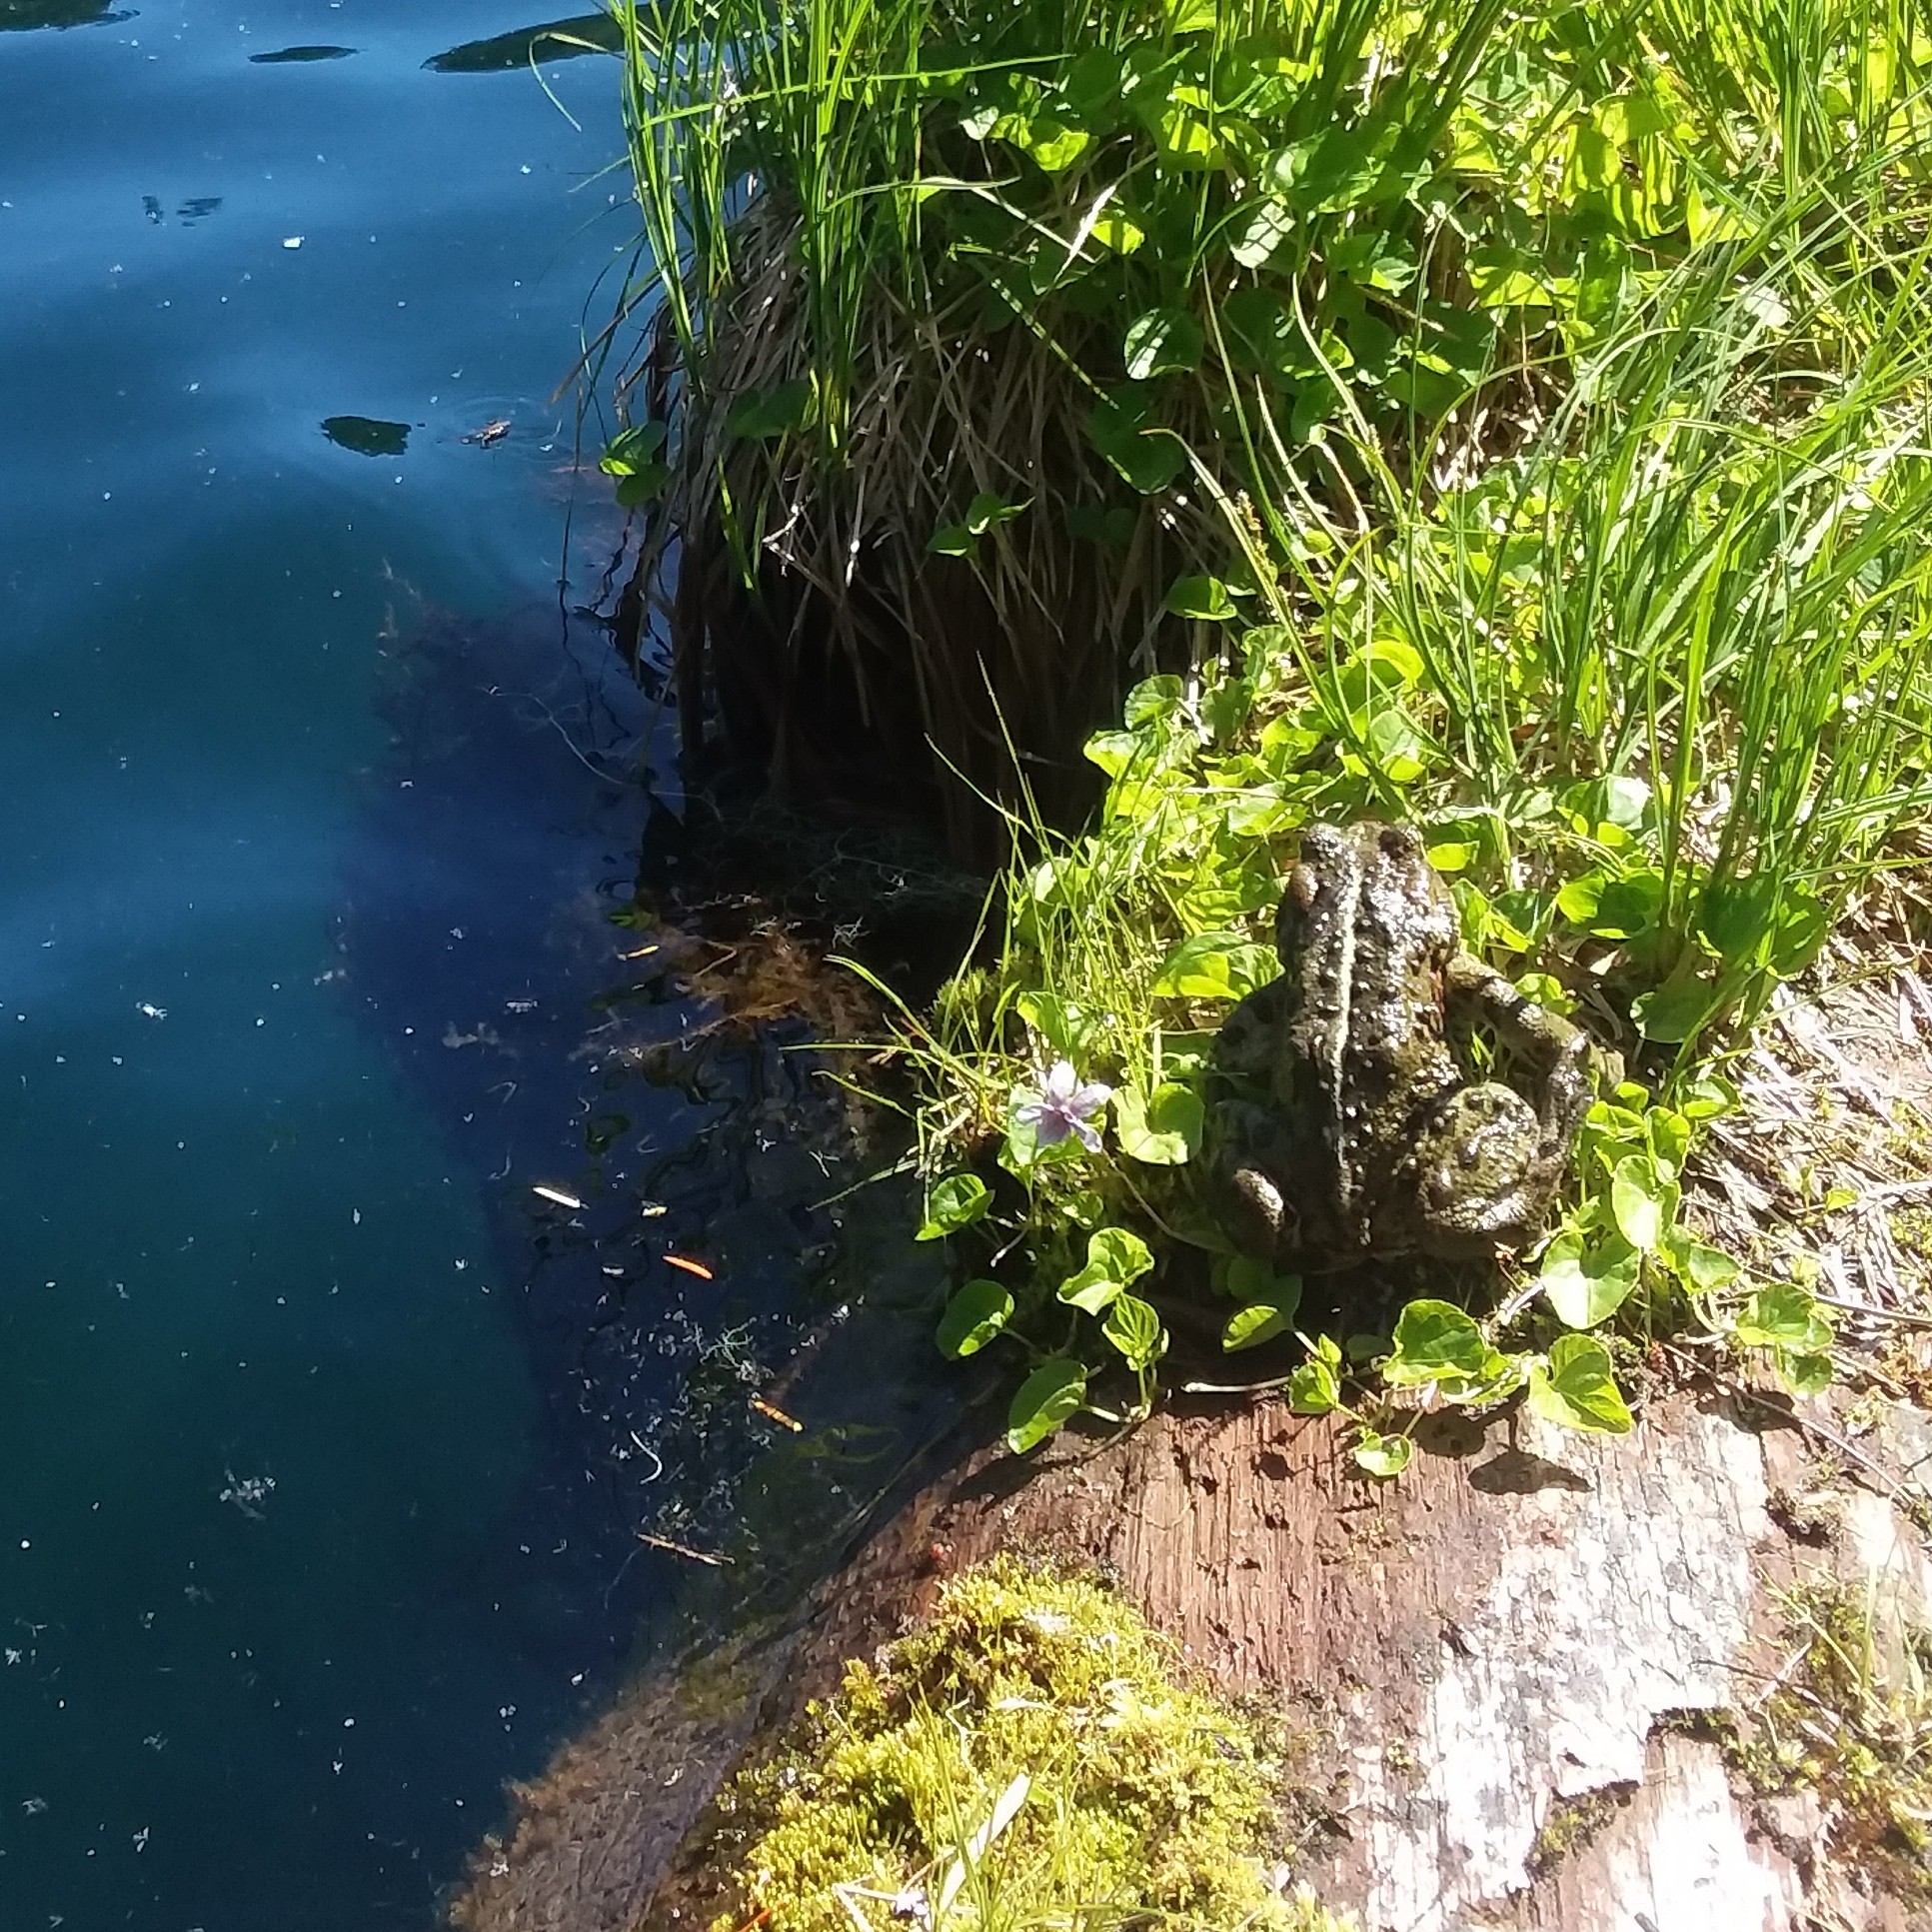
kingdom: Animalia
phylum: Chordata
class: Amphibia
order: Anura
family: Bufonidae
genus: Anaxyrus
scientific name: Anaxyrus boreas
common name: Western toad
